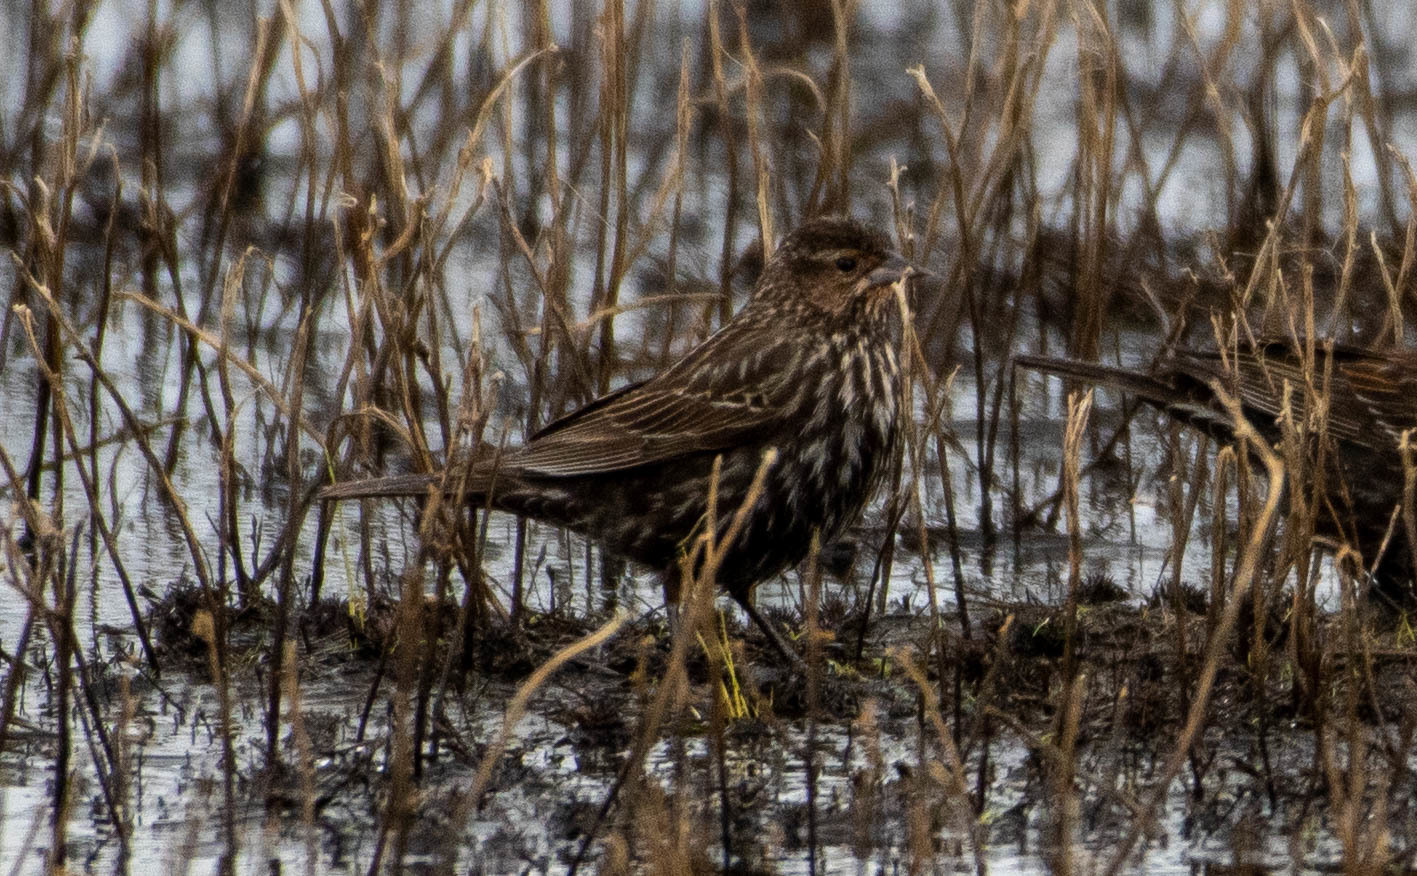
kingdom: Animalia
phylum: Chordata
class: Aves
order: Passeriformes
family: Icteridae
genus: Agelaius
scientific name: Agelaius phoeniceus
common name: Red-winged blackbird
